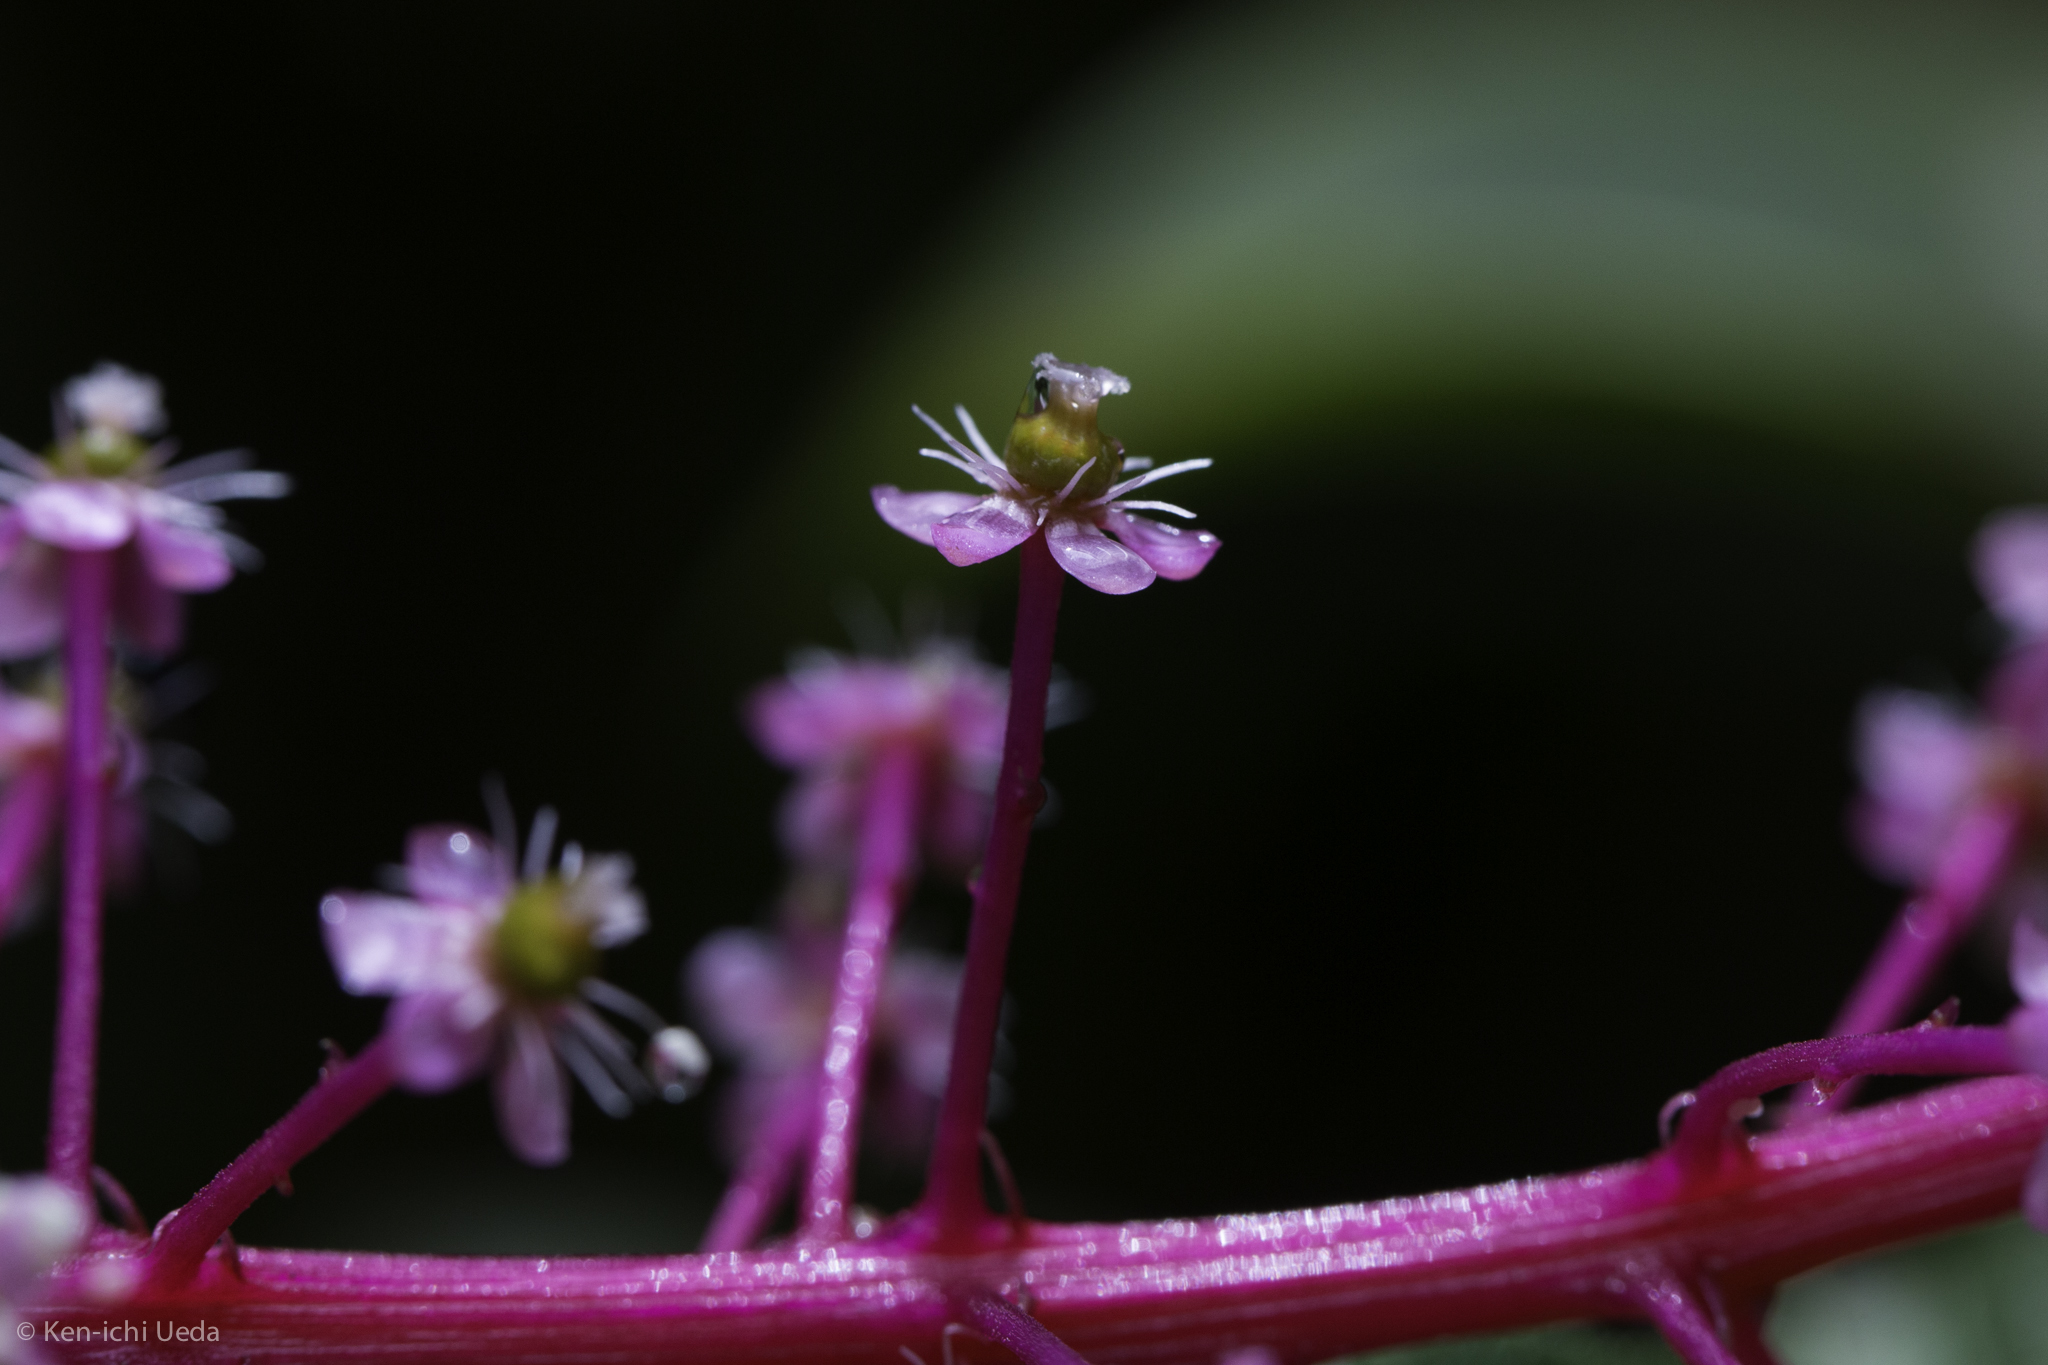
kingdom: Plantae
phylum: Tracheophyta
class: Magnoliopsida
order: Caryophyllales
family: Phytolaccaceae
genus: Phytolacca
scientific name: Phytolacca rivinoides
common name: Venezuelan pokeweed
